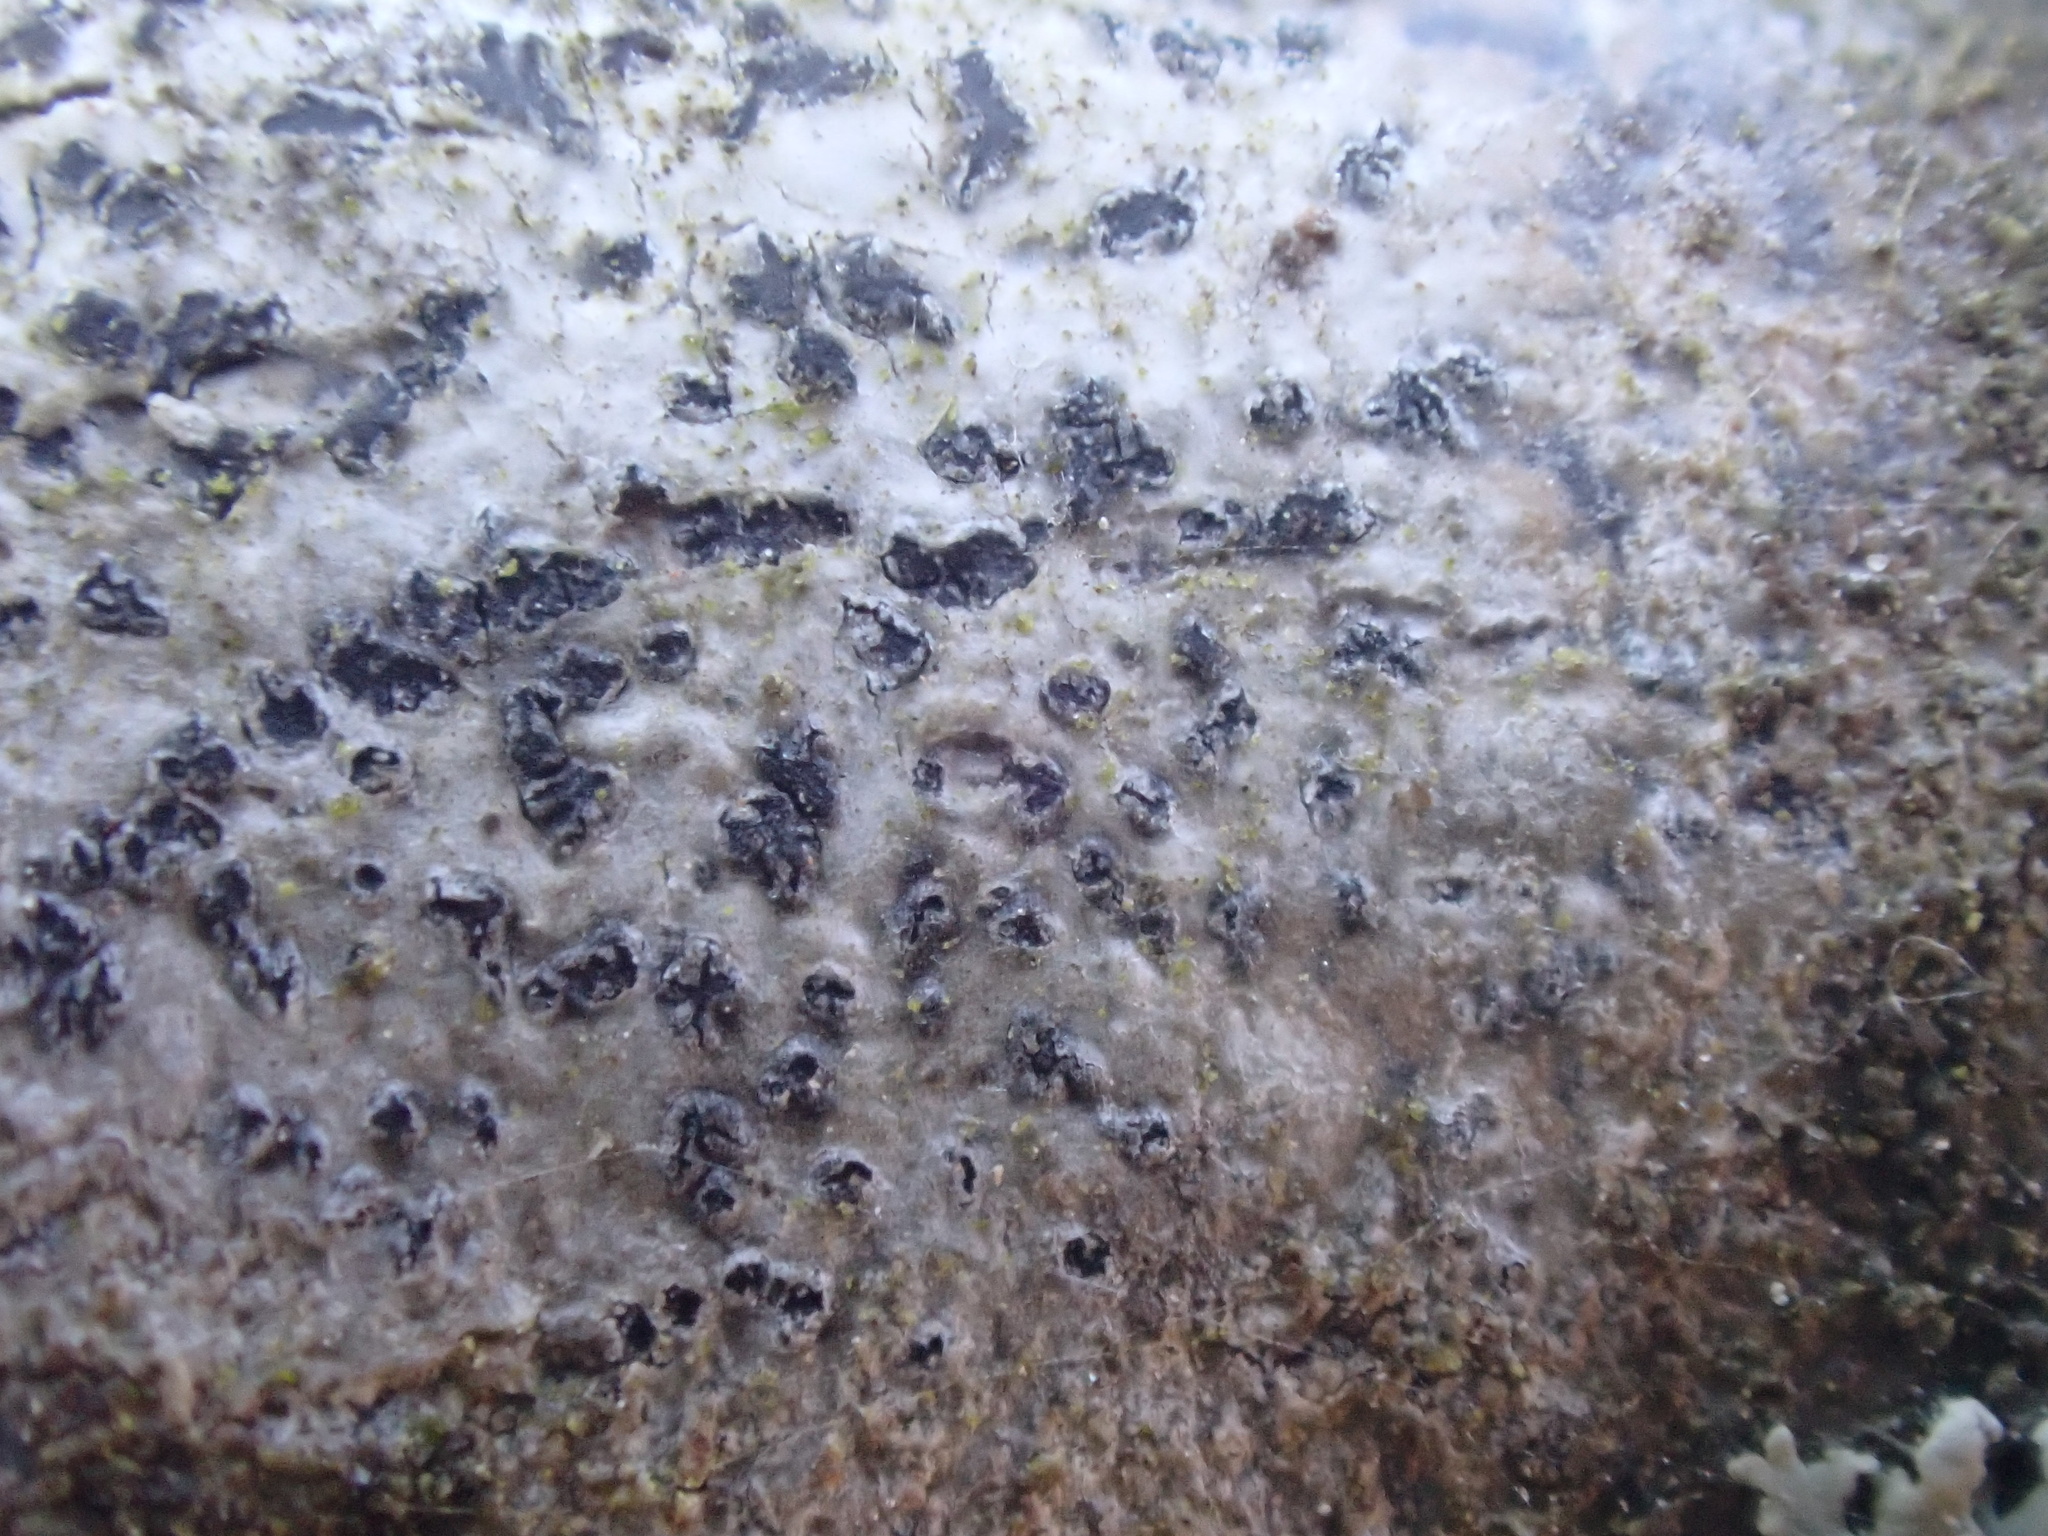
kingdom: Fungi
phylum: Ascomycota
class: Arthoniomycetes
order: Arthoniales
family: Arthoniaceae
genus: Arthonia
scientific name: Arthonia radiata
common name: Asterisk lichen
